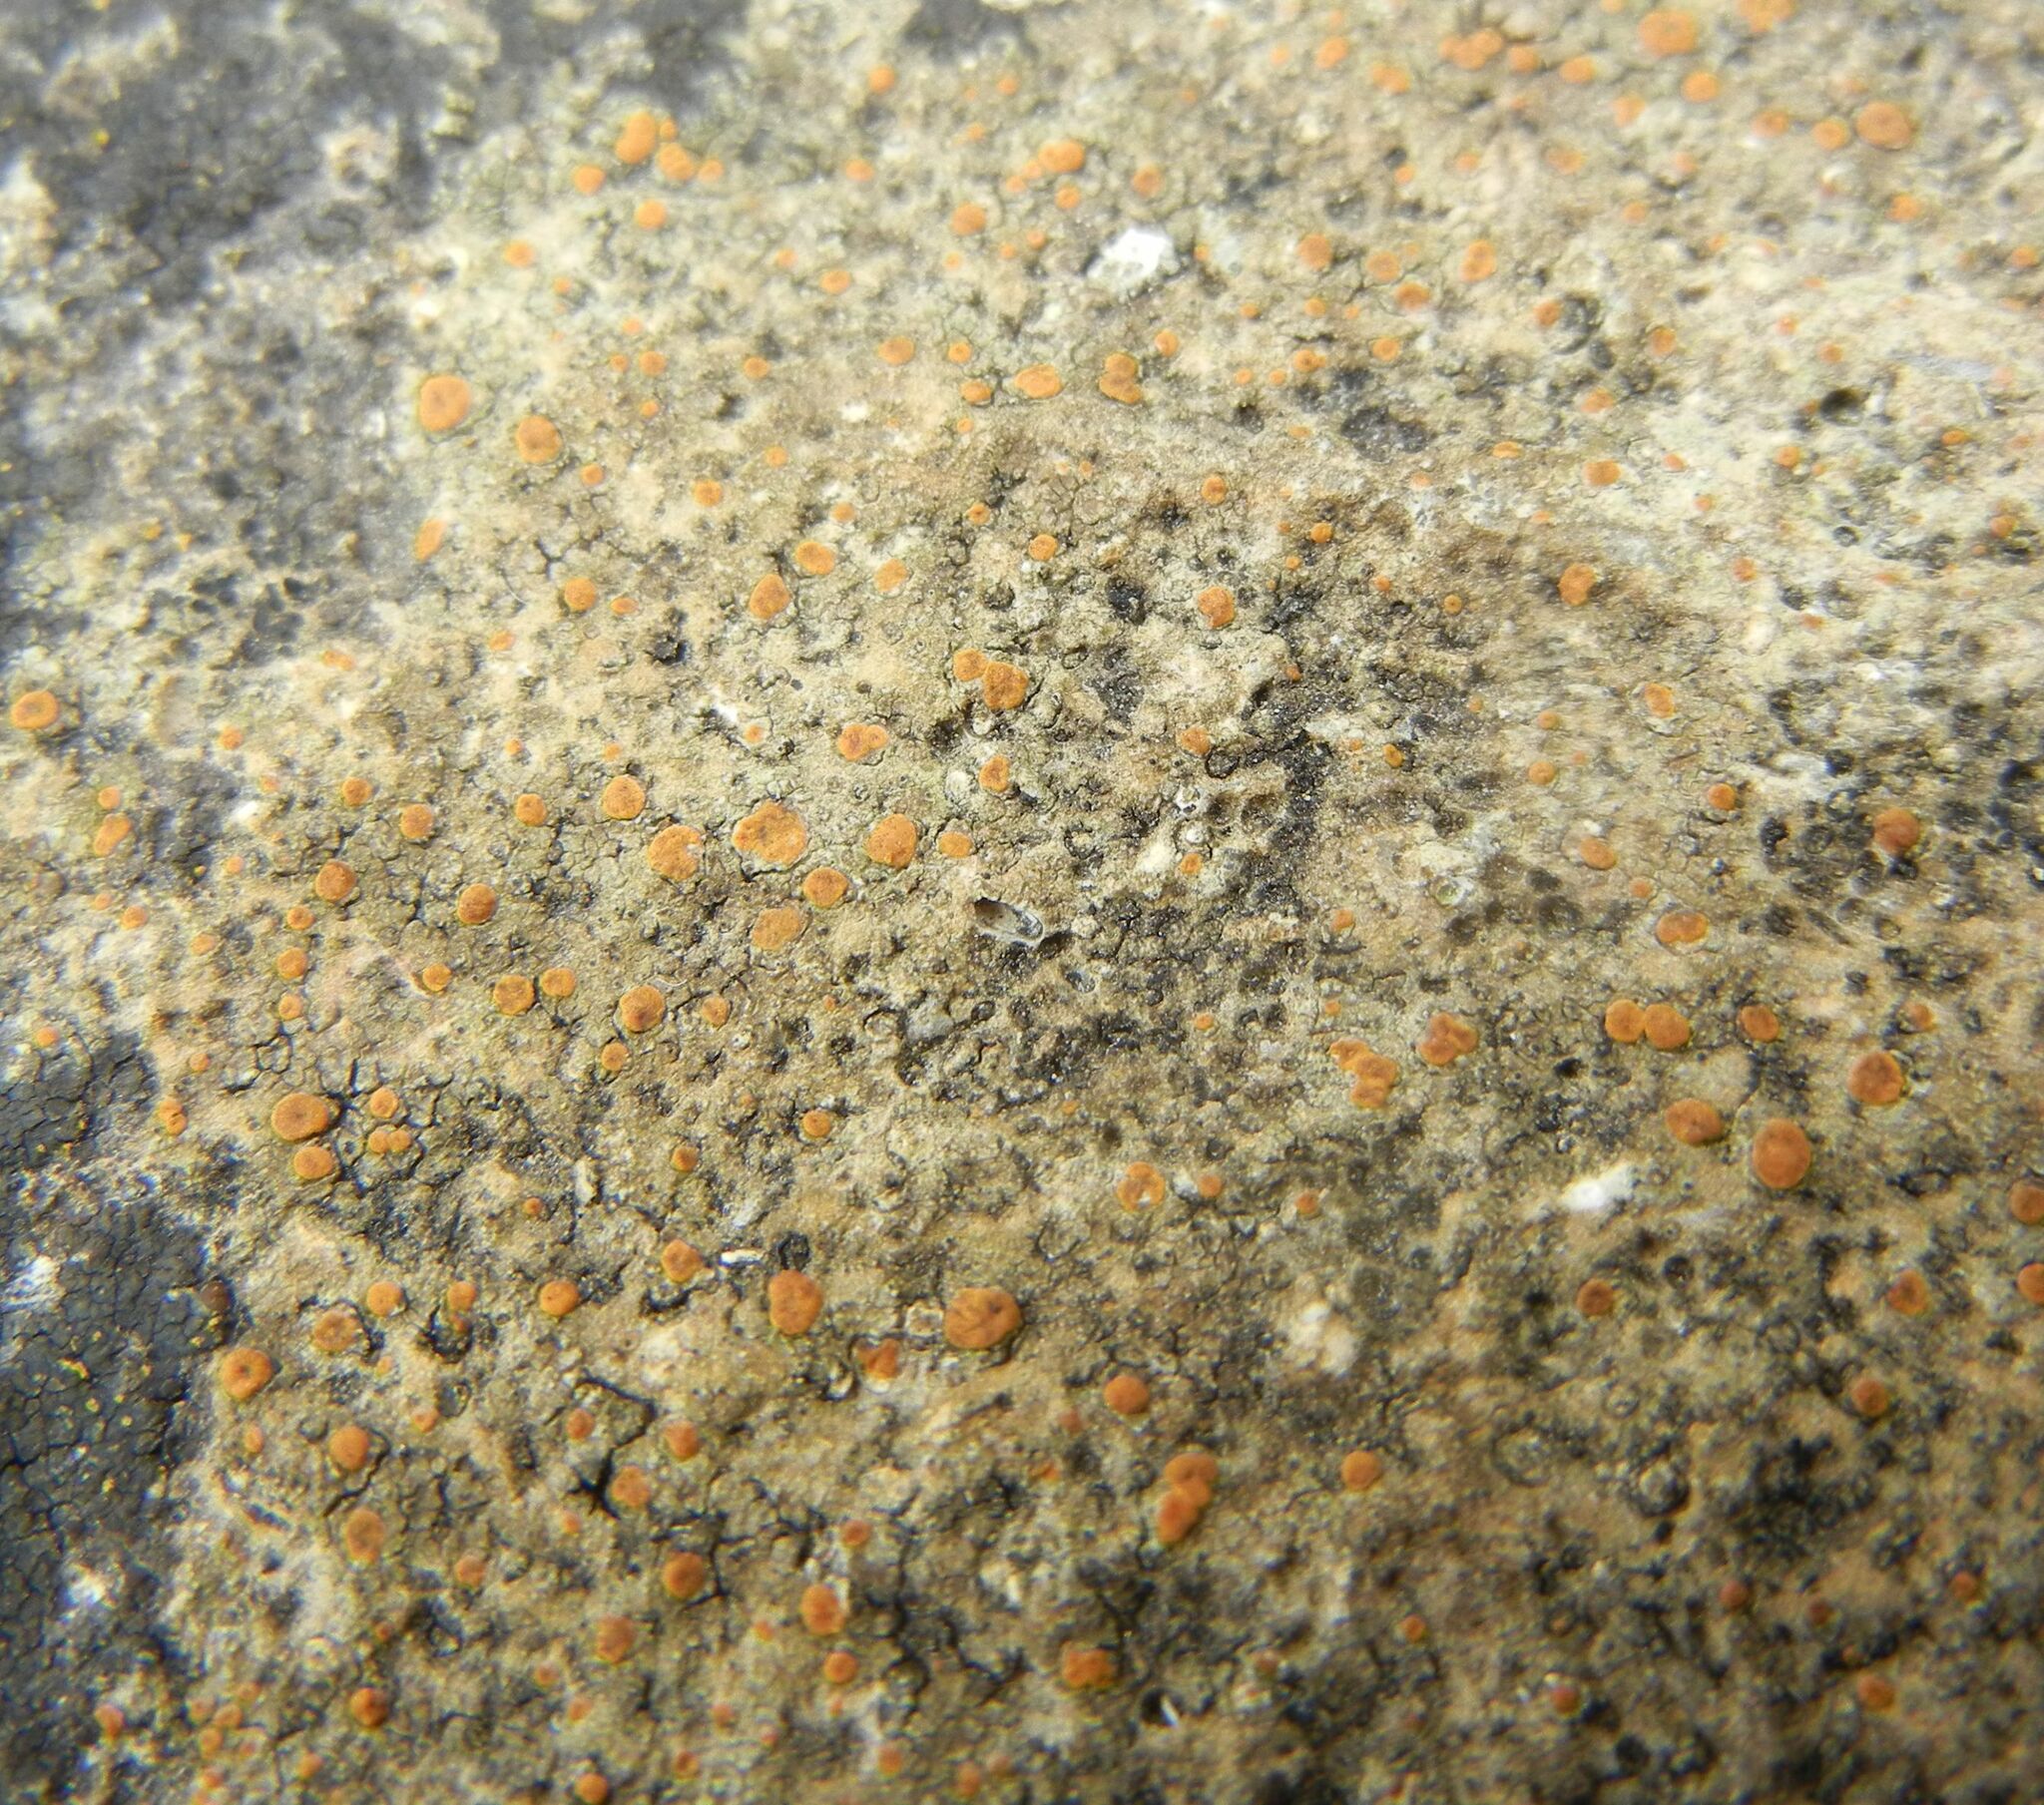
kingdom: Fungi
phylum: Ascomycota
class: Lecanoromycetes
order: Lecanorales
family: Psoraceae
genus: Protoblastenia
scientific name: Protoblastenia rupestris
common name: Chewing gum lichen
